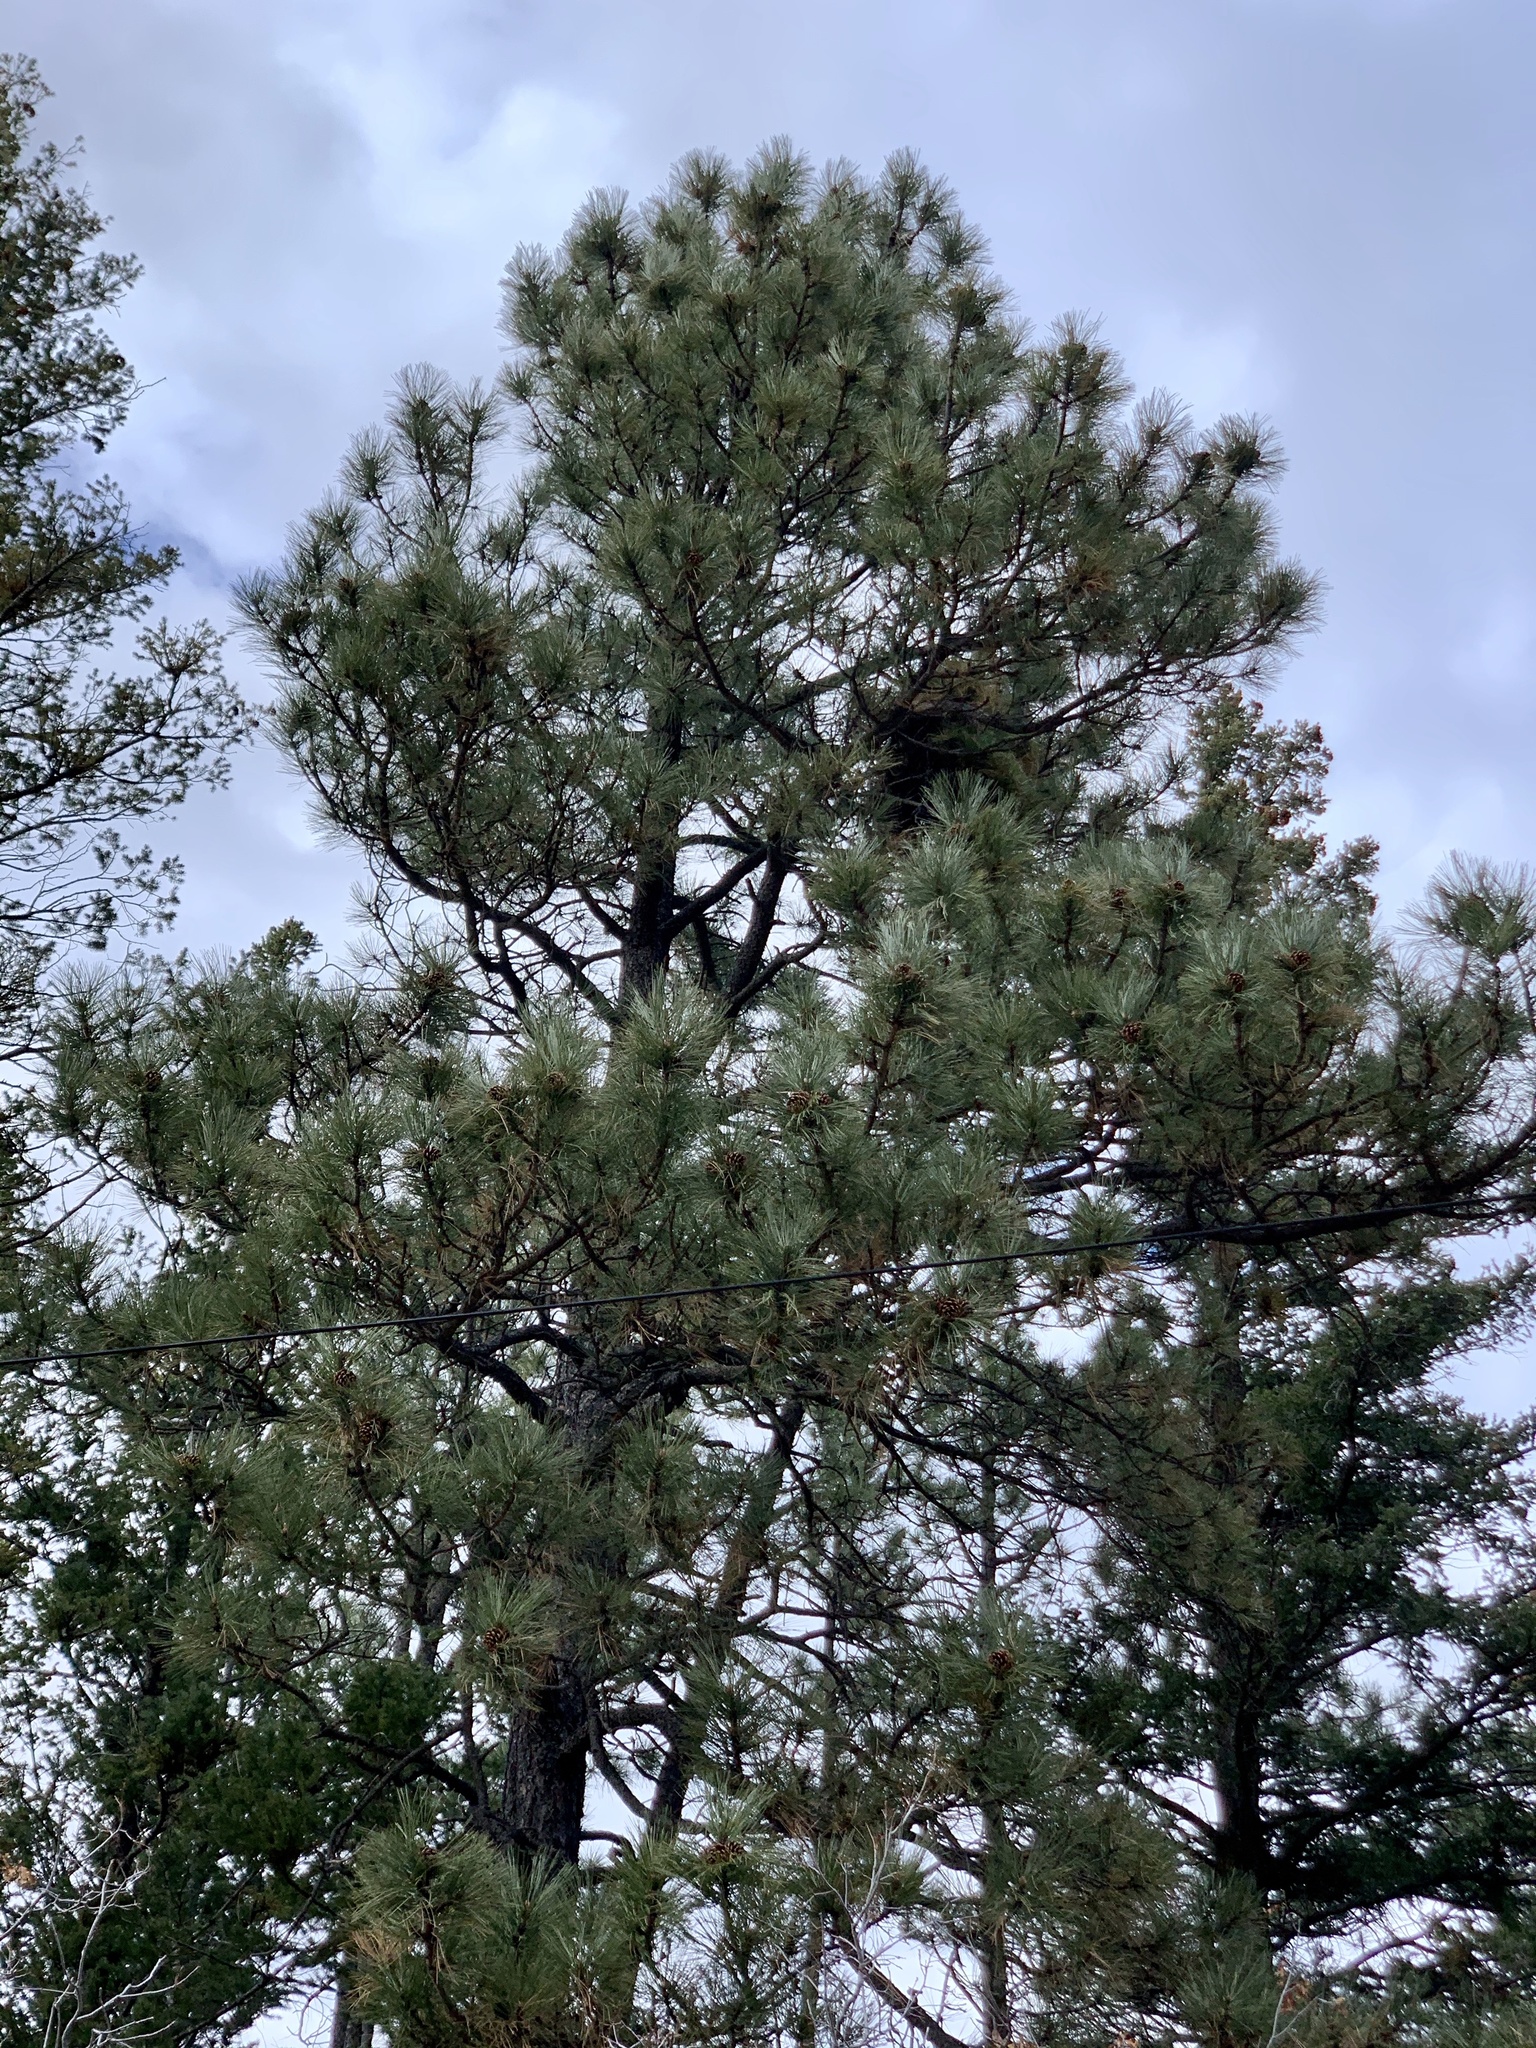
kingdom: Plantae
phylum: Tracheophyta
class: Pinopsida
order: Pinales
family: Pinaceae
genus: Pinus
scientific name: Pinus ponderosa
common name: Western yellow-pine
